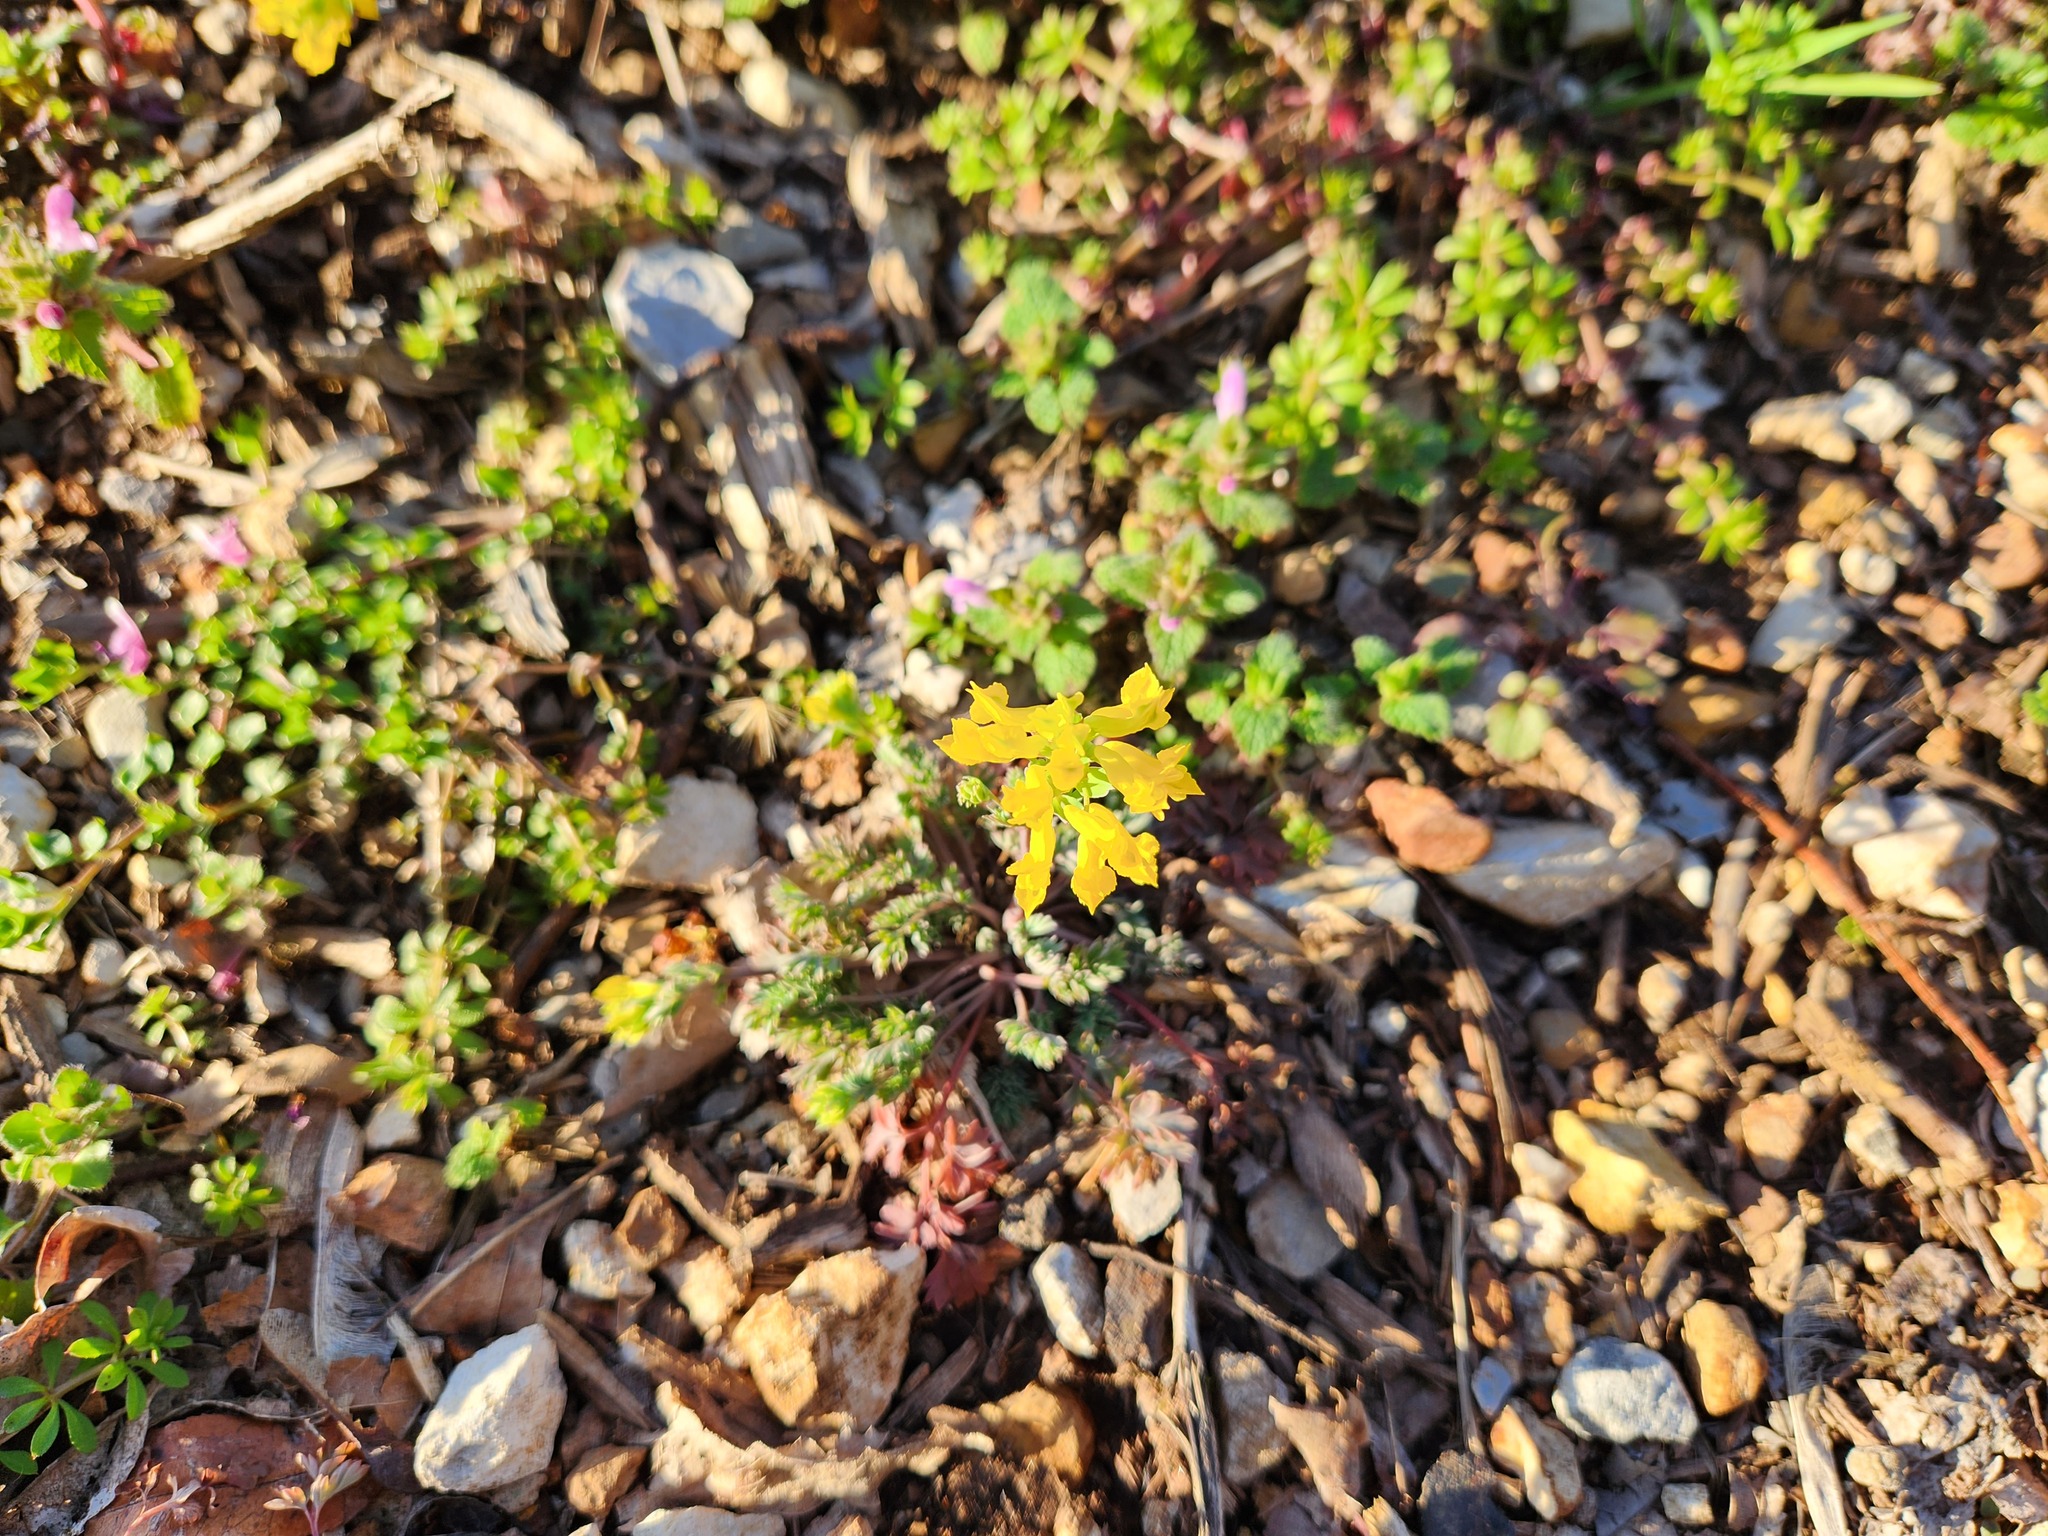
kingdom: Plantae
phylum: Tracheophyta
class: Magnoliopsida
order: Ranunculales
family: Papaveraceae
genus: Corydalis
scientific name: Corydalis flavula
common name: Yellow corydalis
